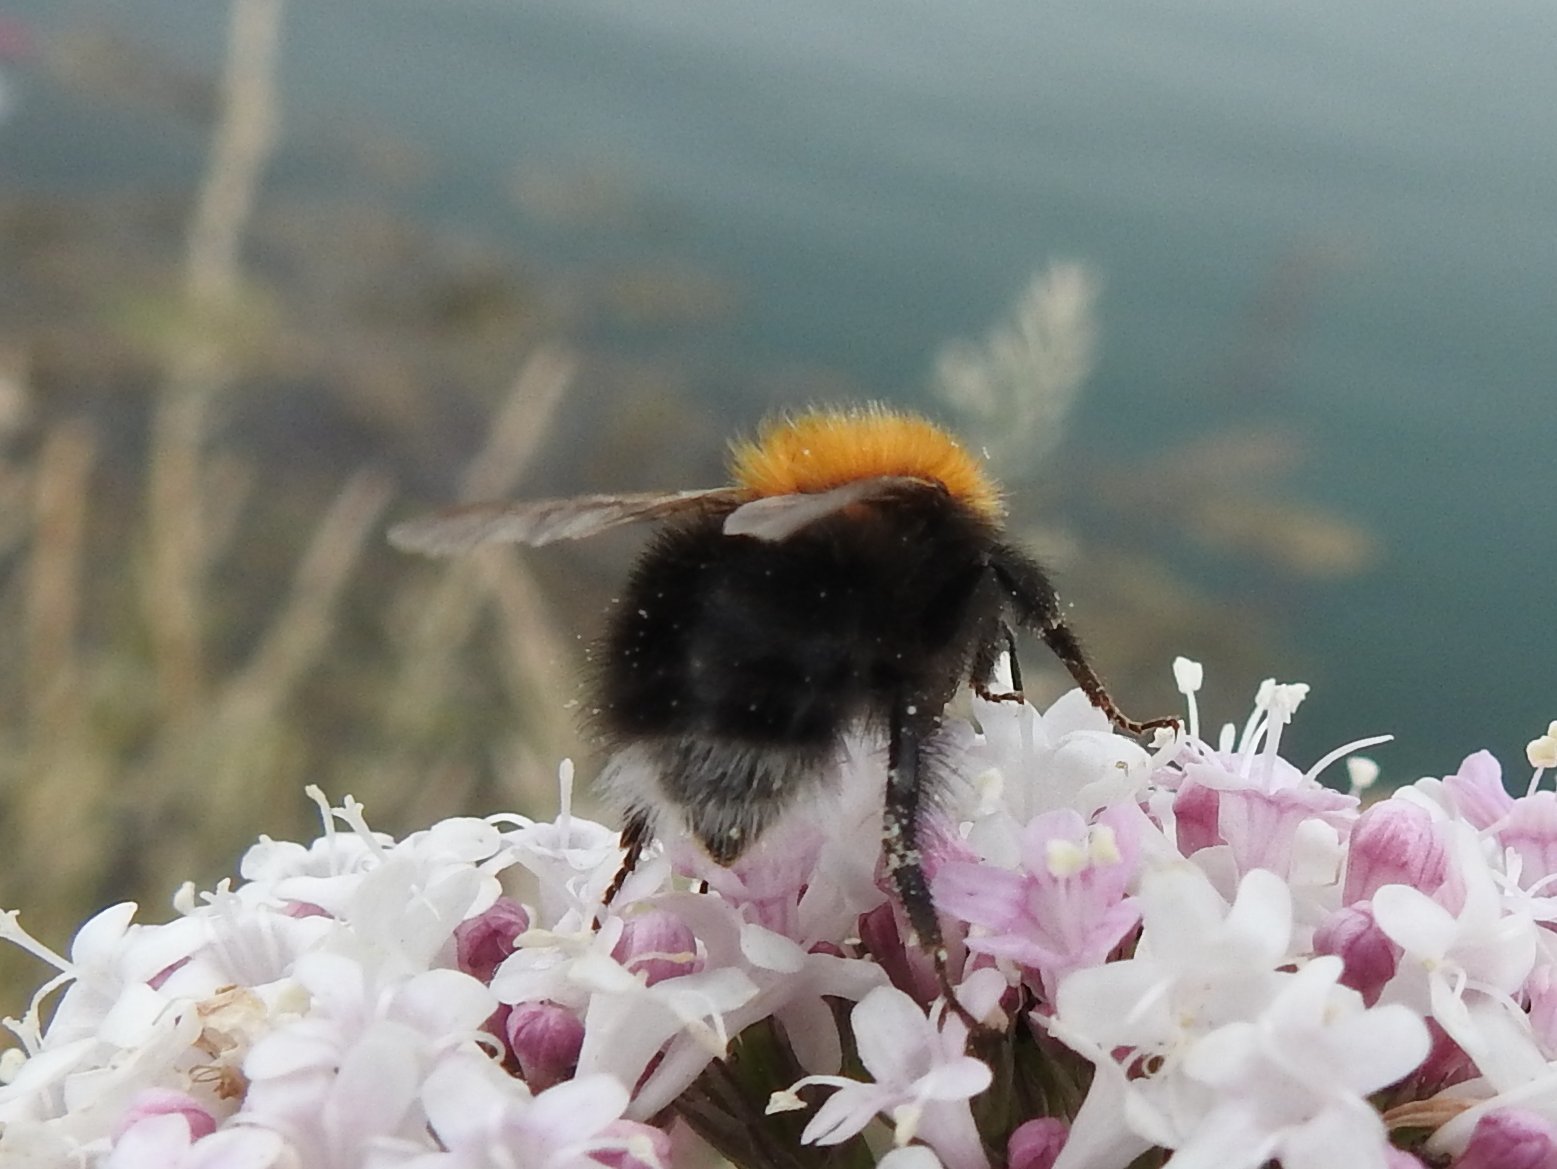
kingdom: Animalia
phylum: Arthropoda
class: Insecta
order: Hymenoptera
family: Apidae
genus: Bombus
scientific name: Bombus hypnorum
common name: New garden bumblebee
